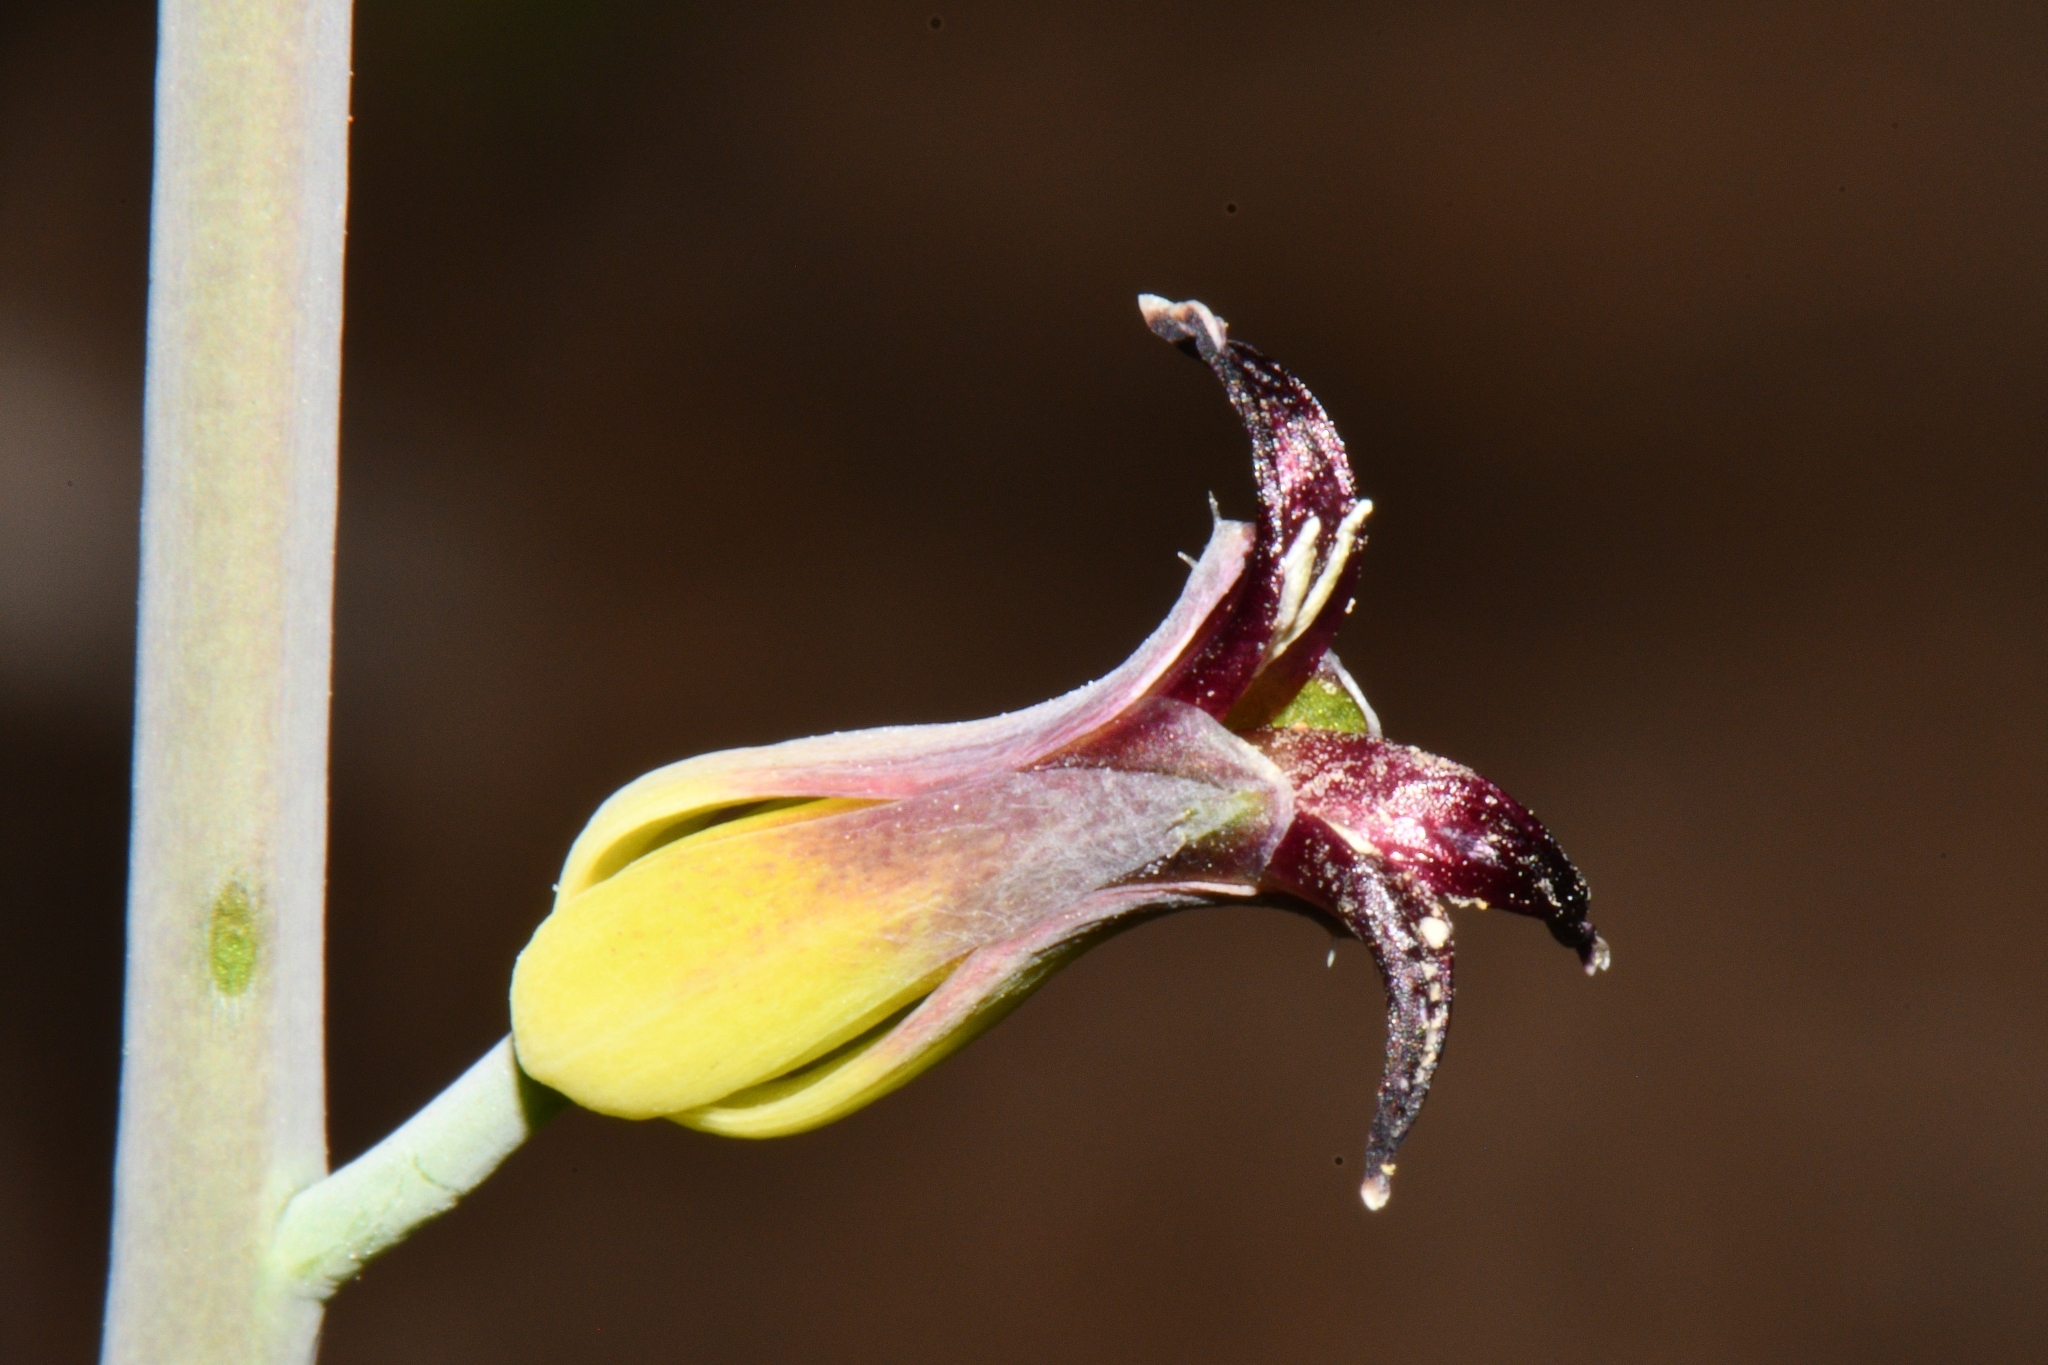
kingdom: Plantae
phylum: Tracheophyta
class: Magnoliopsida
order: Brassicales
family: Brassicaceae
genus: Streptanthus
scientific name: Streptanthus cordatus
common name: Heart-leaf jewel-flower
